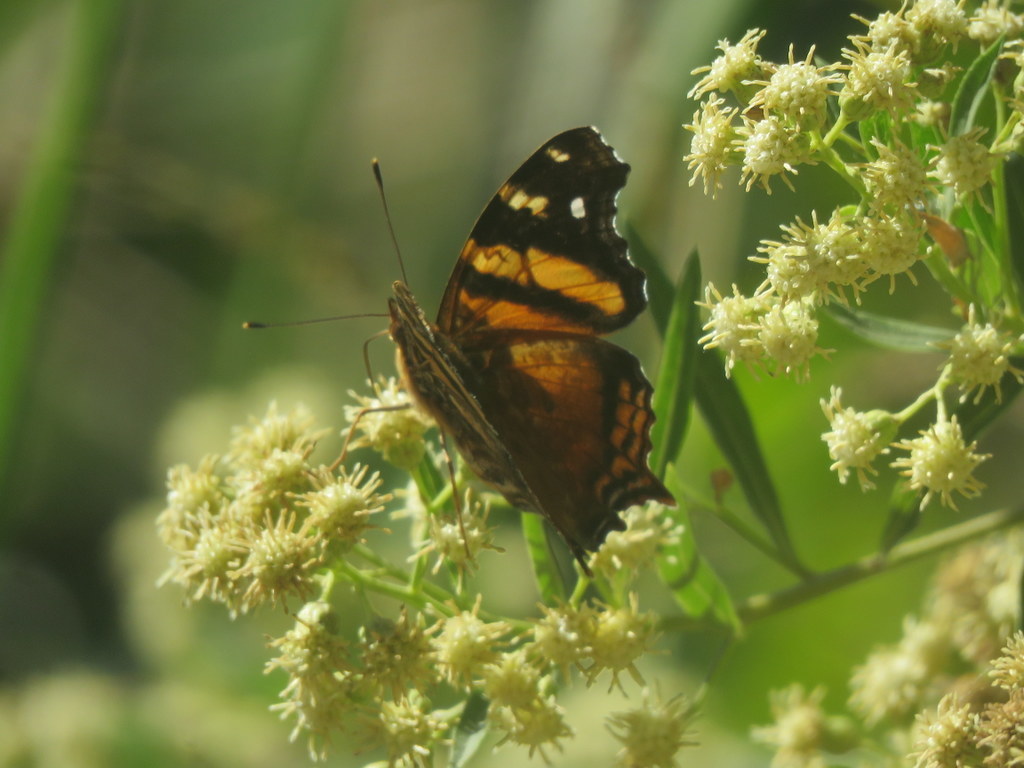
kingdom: Animalia
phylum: Arthropoda
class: Insecta
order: Lepidoptera
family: Nymphalidae
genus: Hypanartia
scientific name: Hypanartia bella
